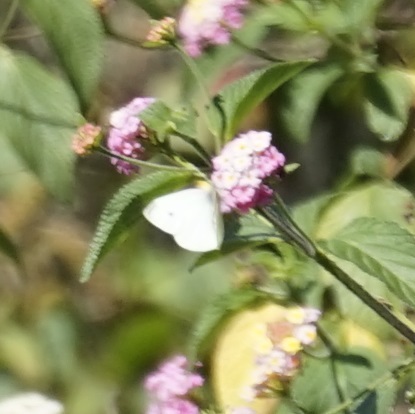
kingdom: Animalia
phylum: Arthropoda
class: Insecta
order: Lepidoptera
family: Pieridae
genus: Pieris
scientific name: Pieris rapae
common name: Small white
